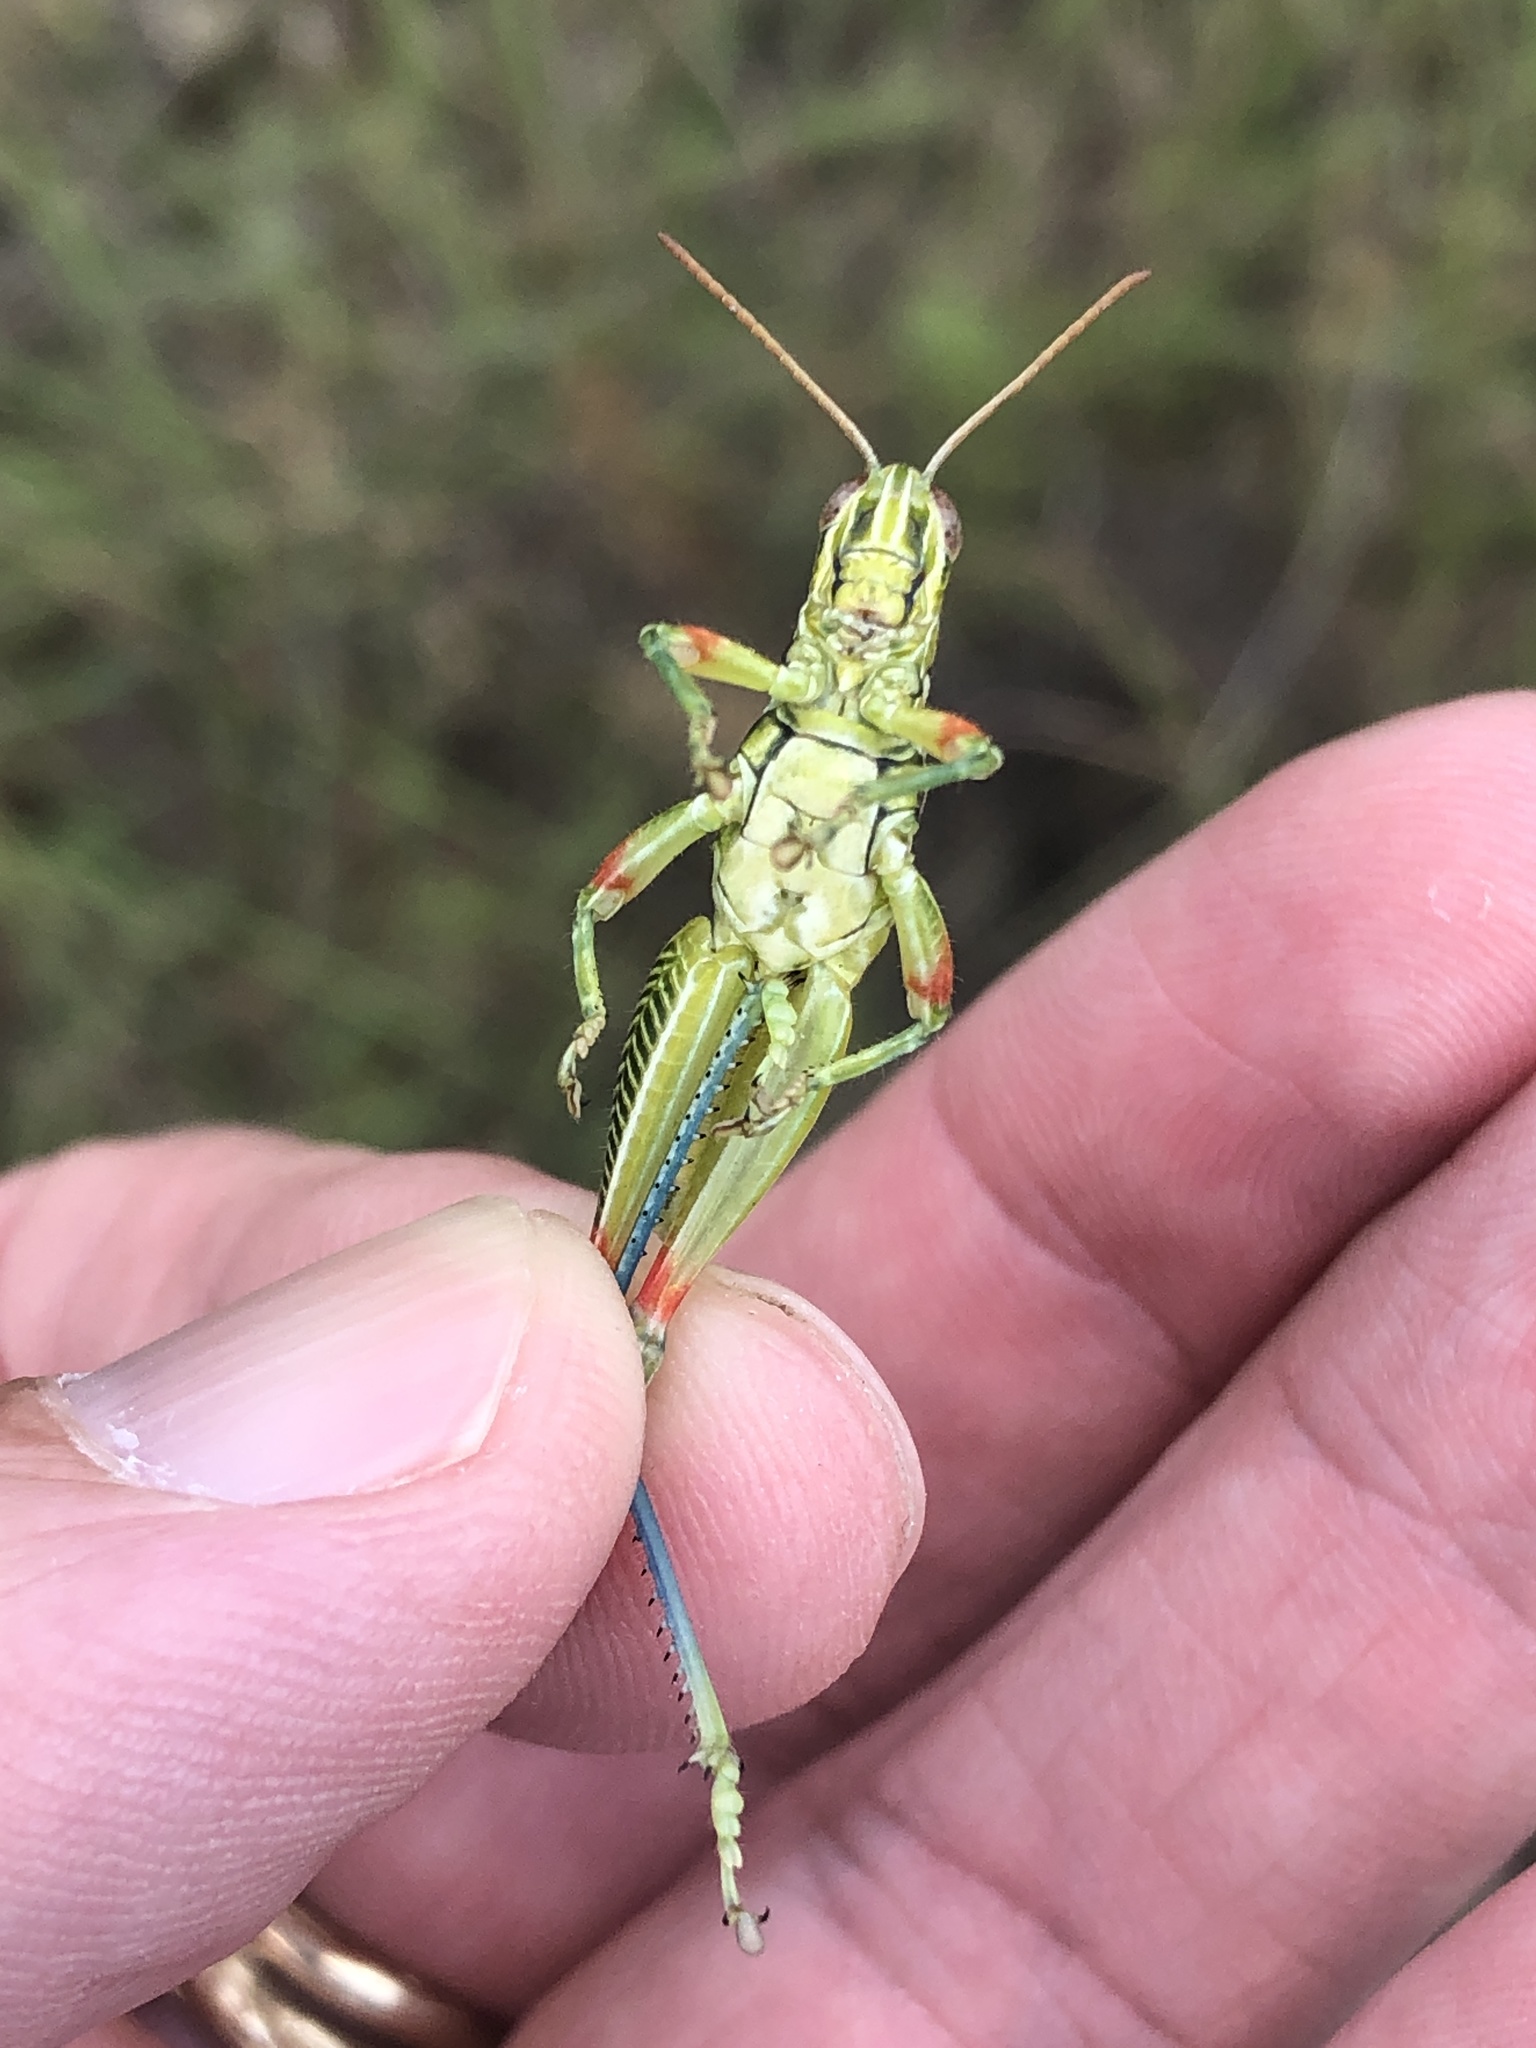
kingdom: Animalia
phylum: Arthropoda
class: Insecta
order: Orthoptera
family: Acrididae
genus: Hesperotettix
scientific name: Hesperotettix viridis
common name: Meadow purple-striped grasshopper
